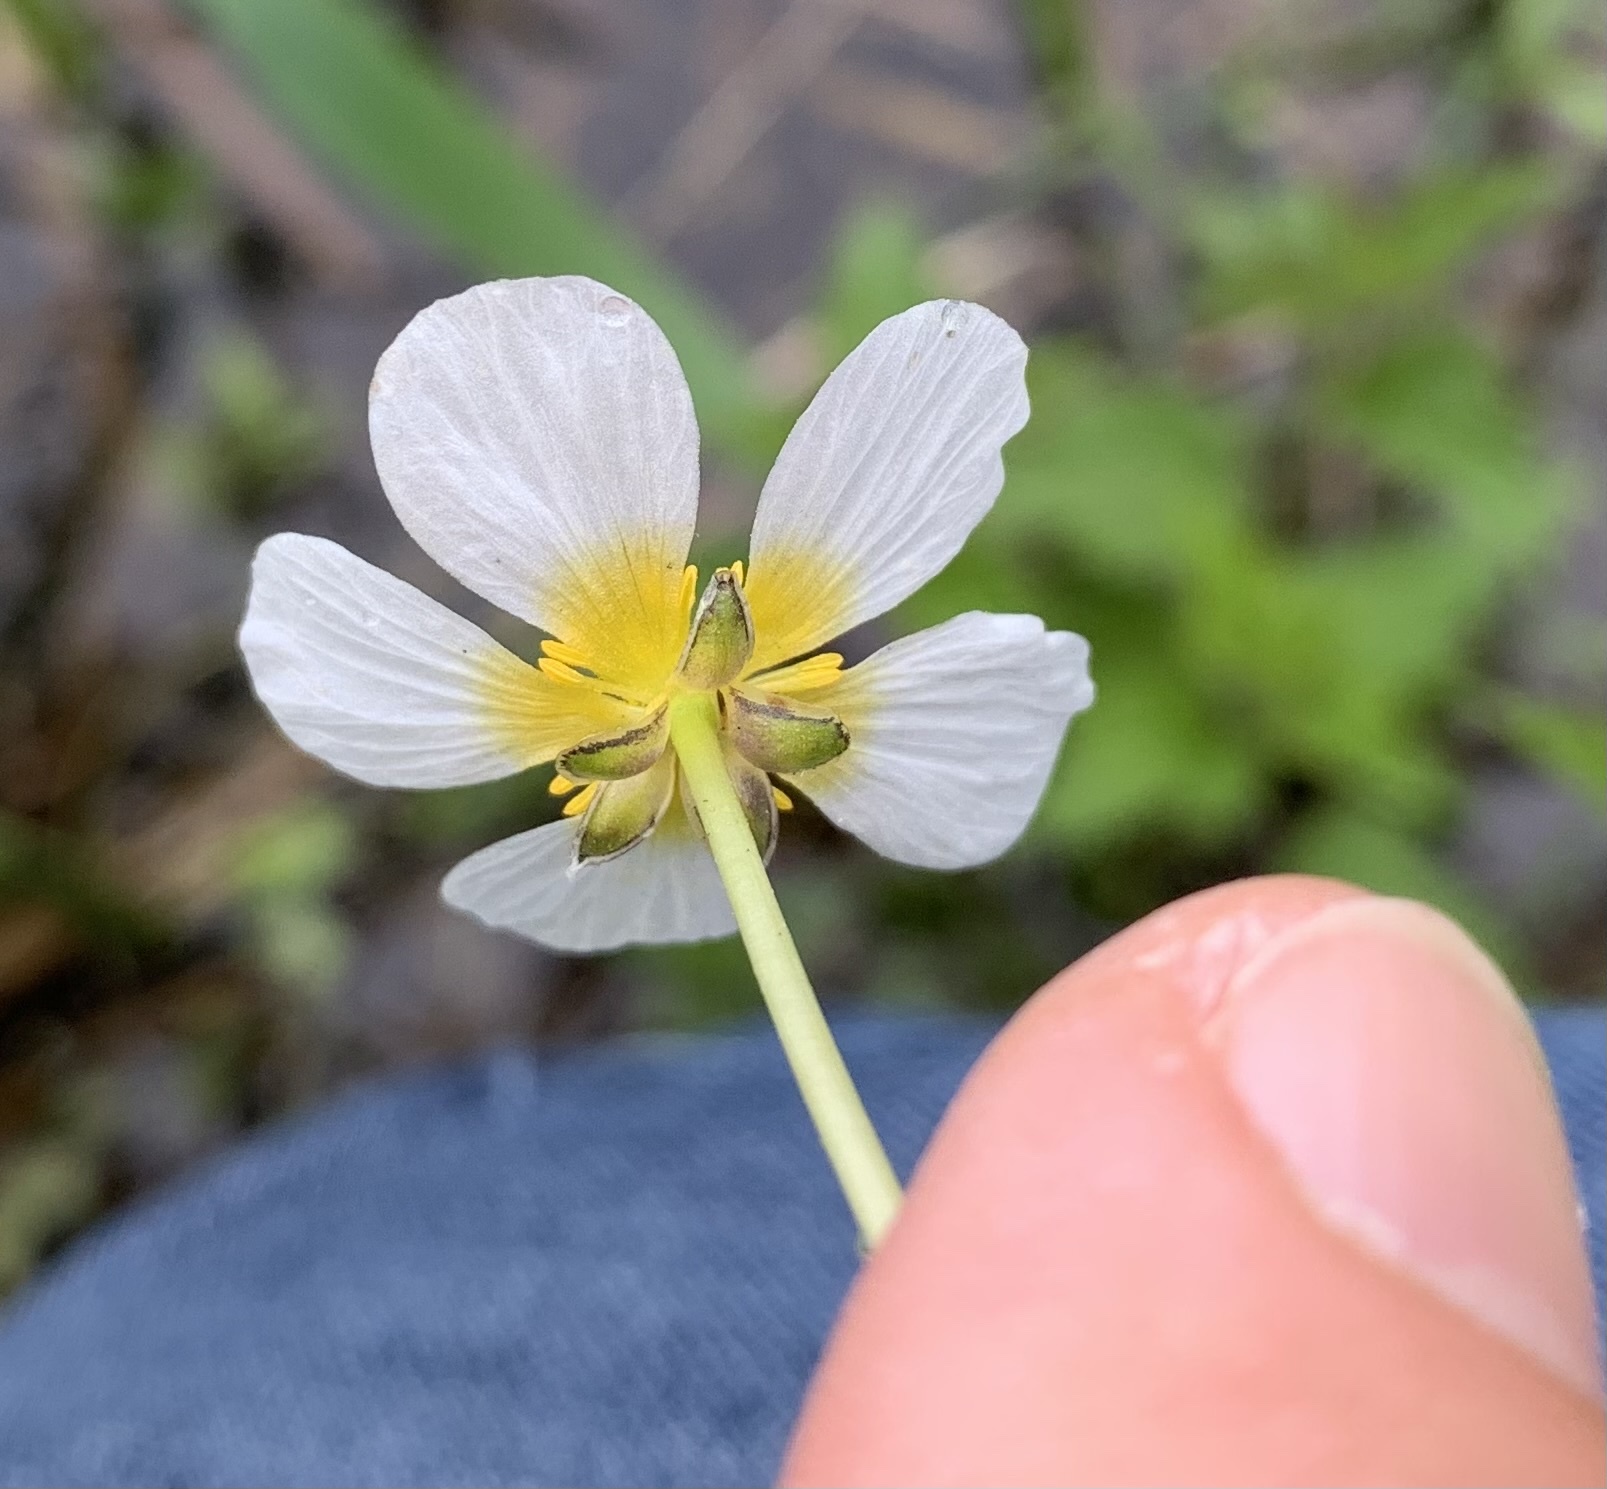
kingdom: Plantae
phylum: Tracheophyta
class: Magnoliopsida
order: Ranunculales
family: Ranunculaceae
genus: Ranunculus
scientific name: Ranunculus peltatus
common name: Pond water-crowfoot
